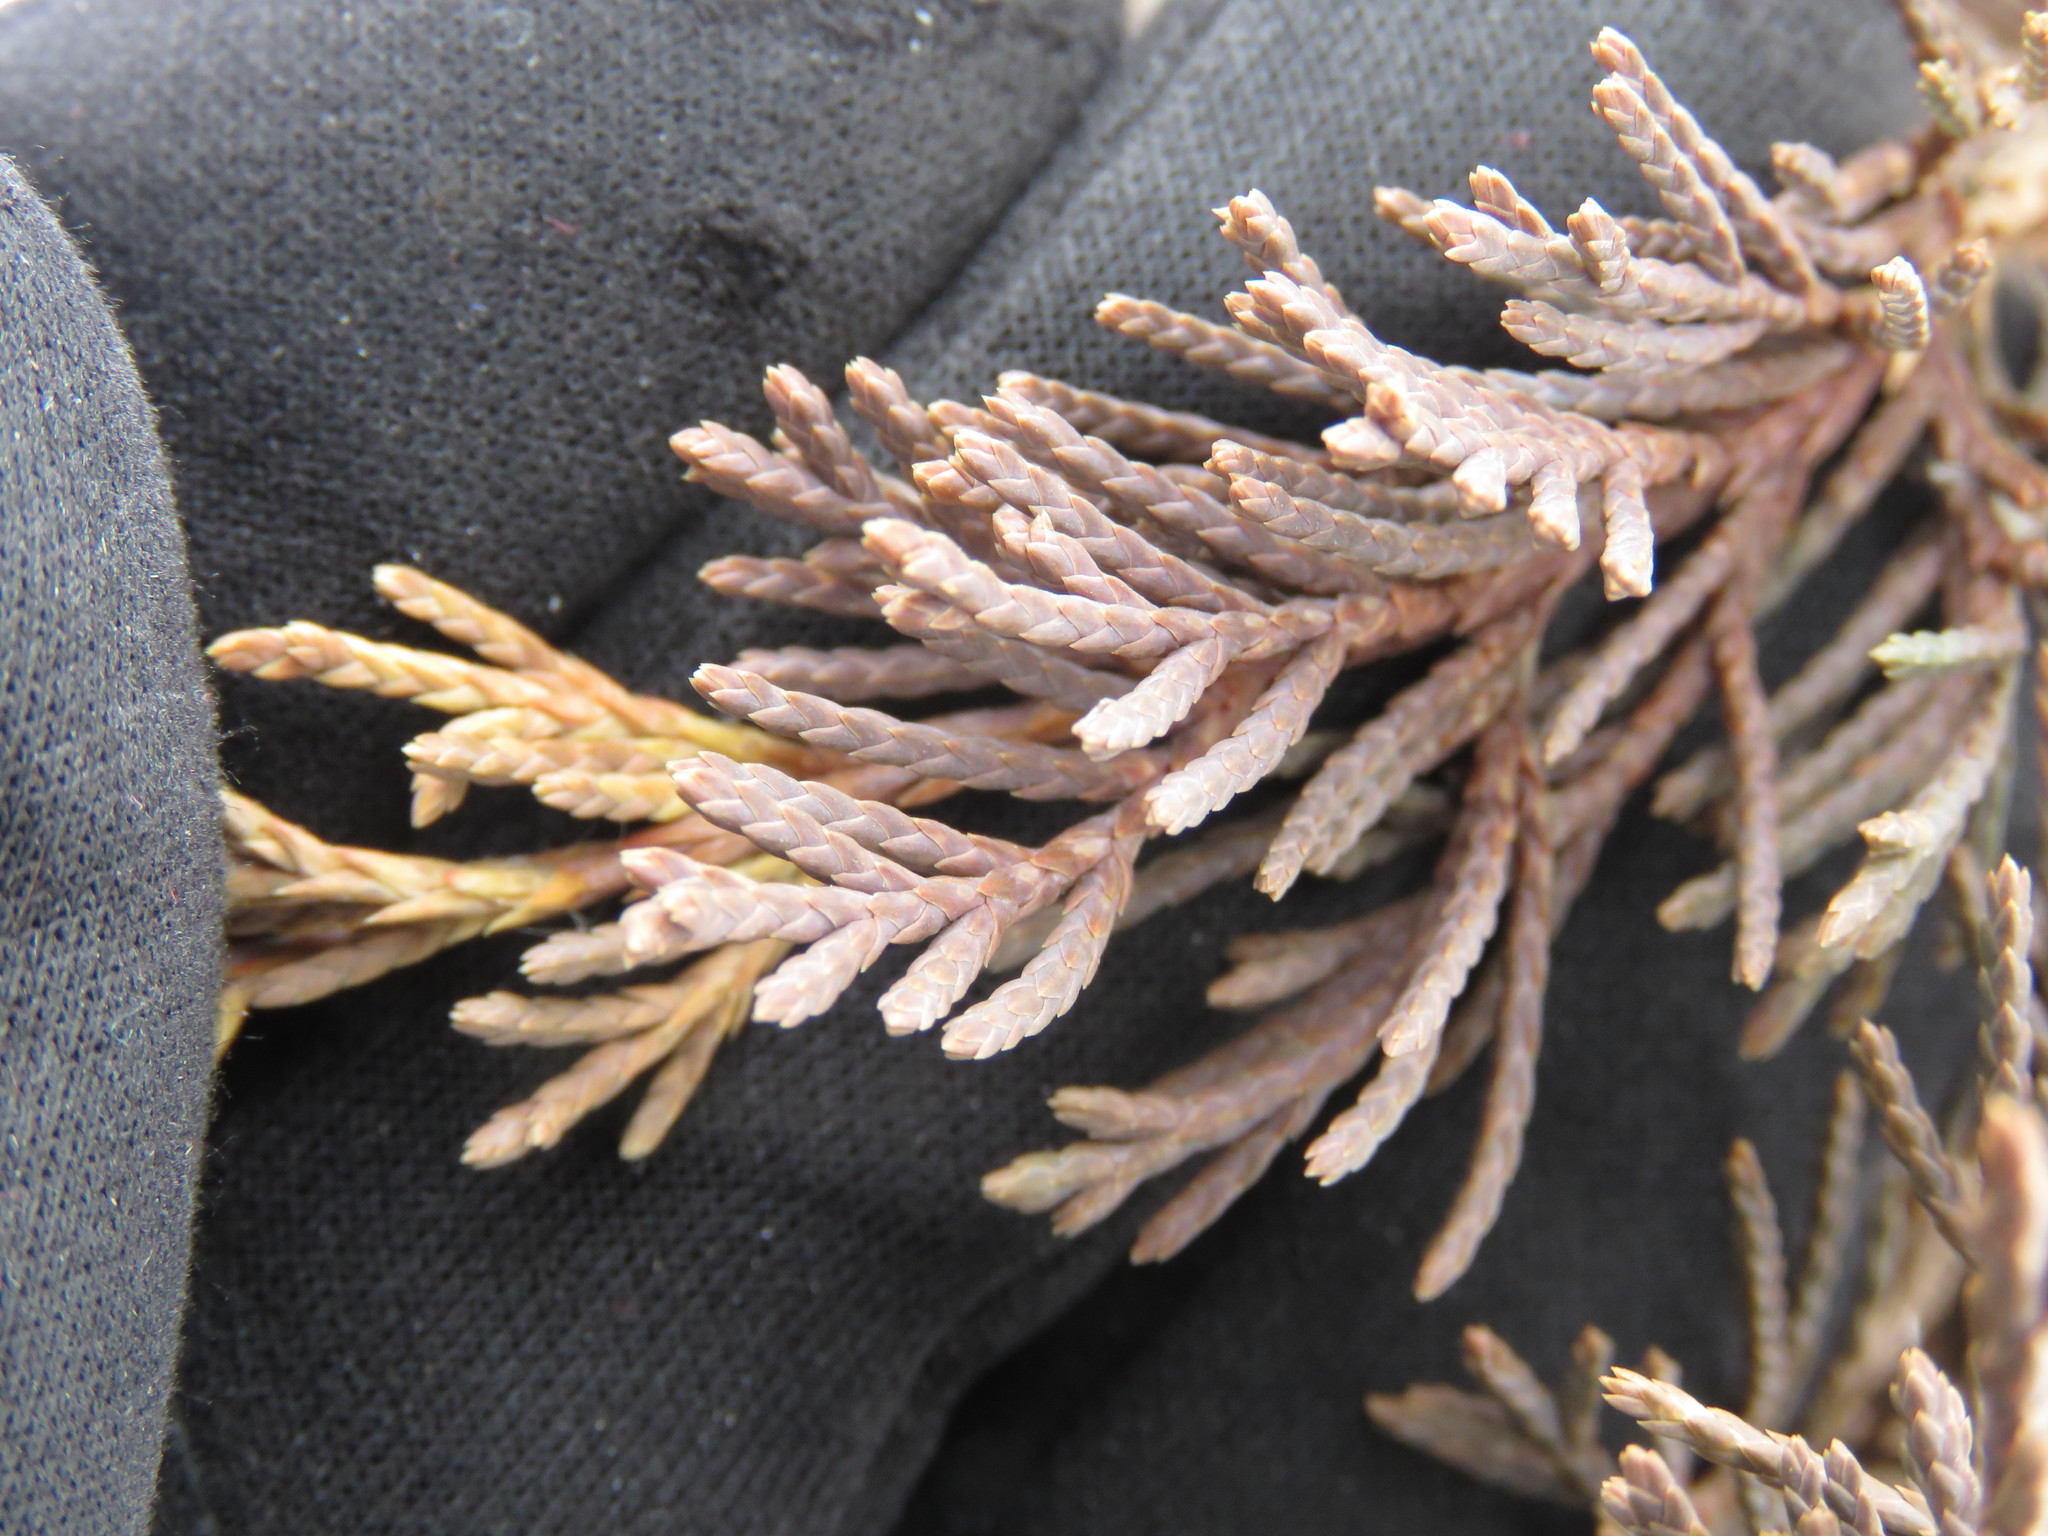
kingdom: Plantae
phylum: Tracheophyta
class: Pinopsida
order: Pinales
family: Cupressaceae
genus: Juniperus
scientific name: Juniperus virginiana
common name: Red juniper
